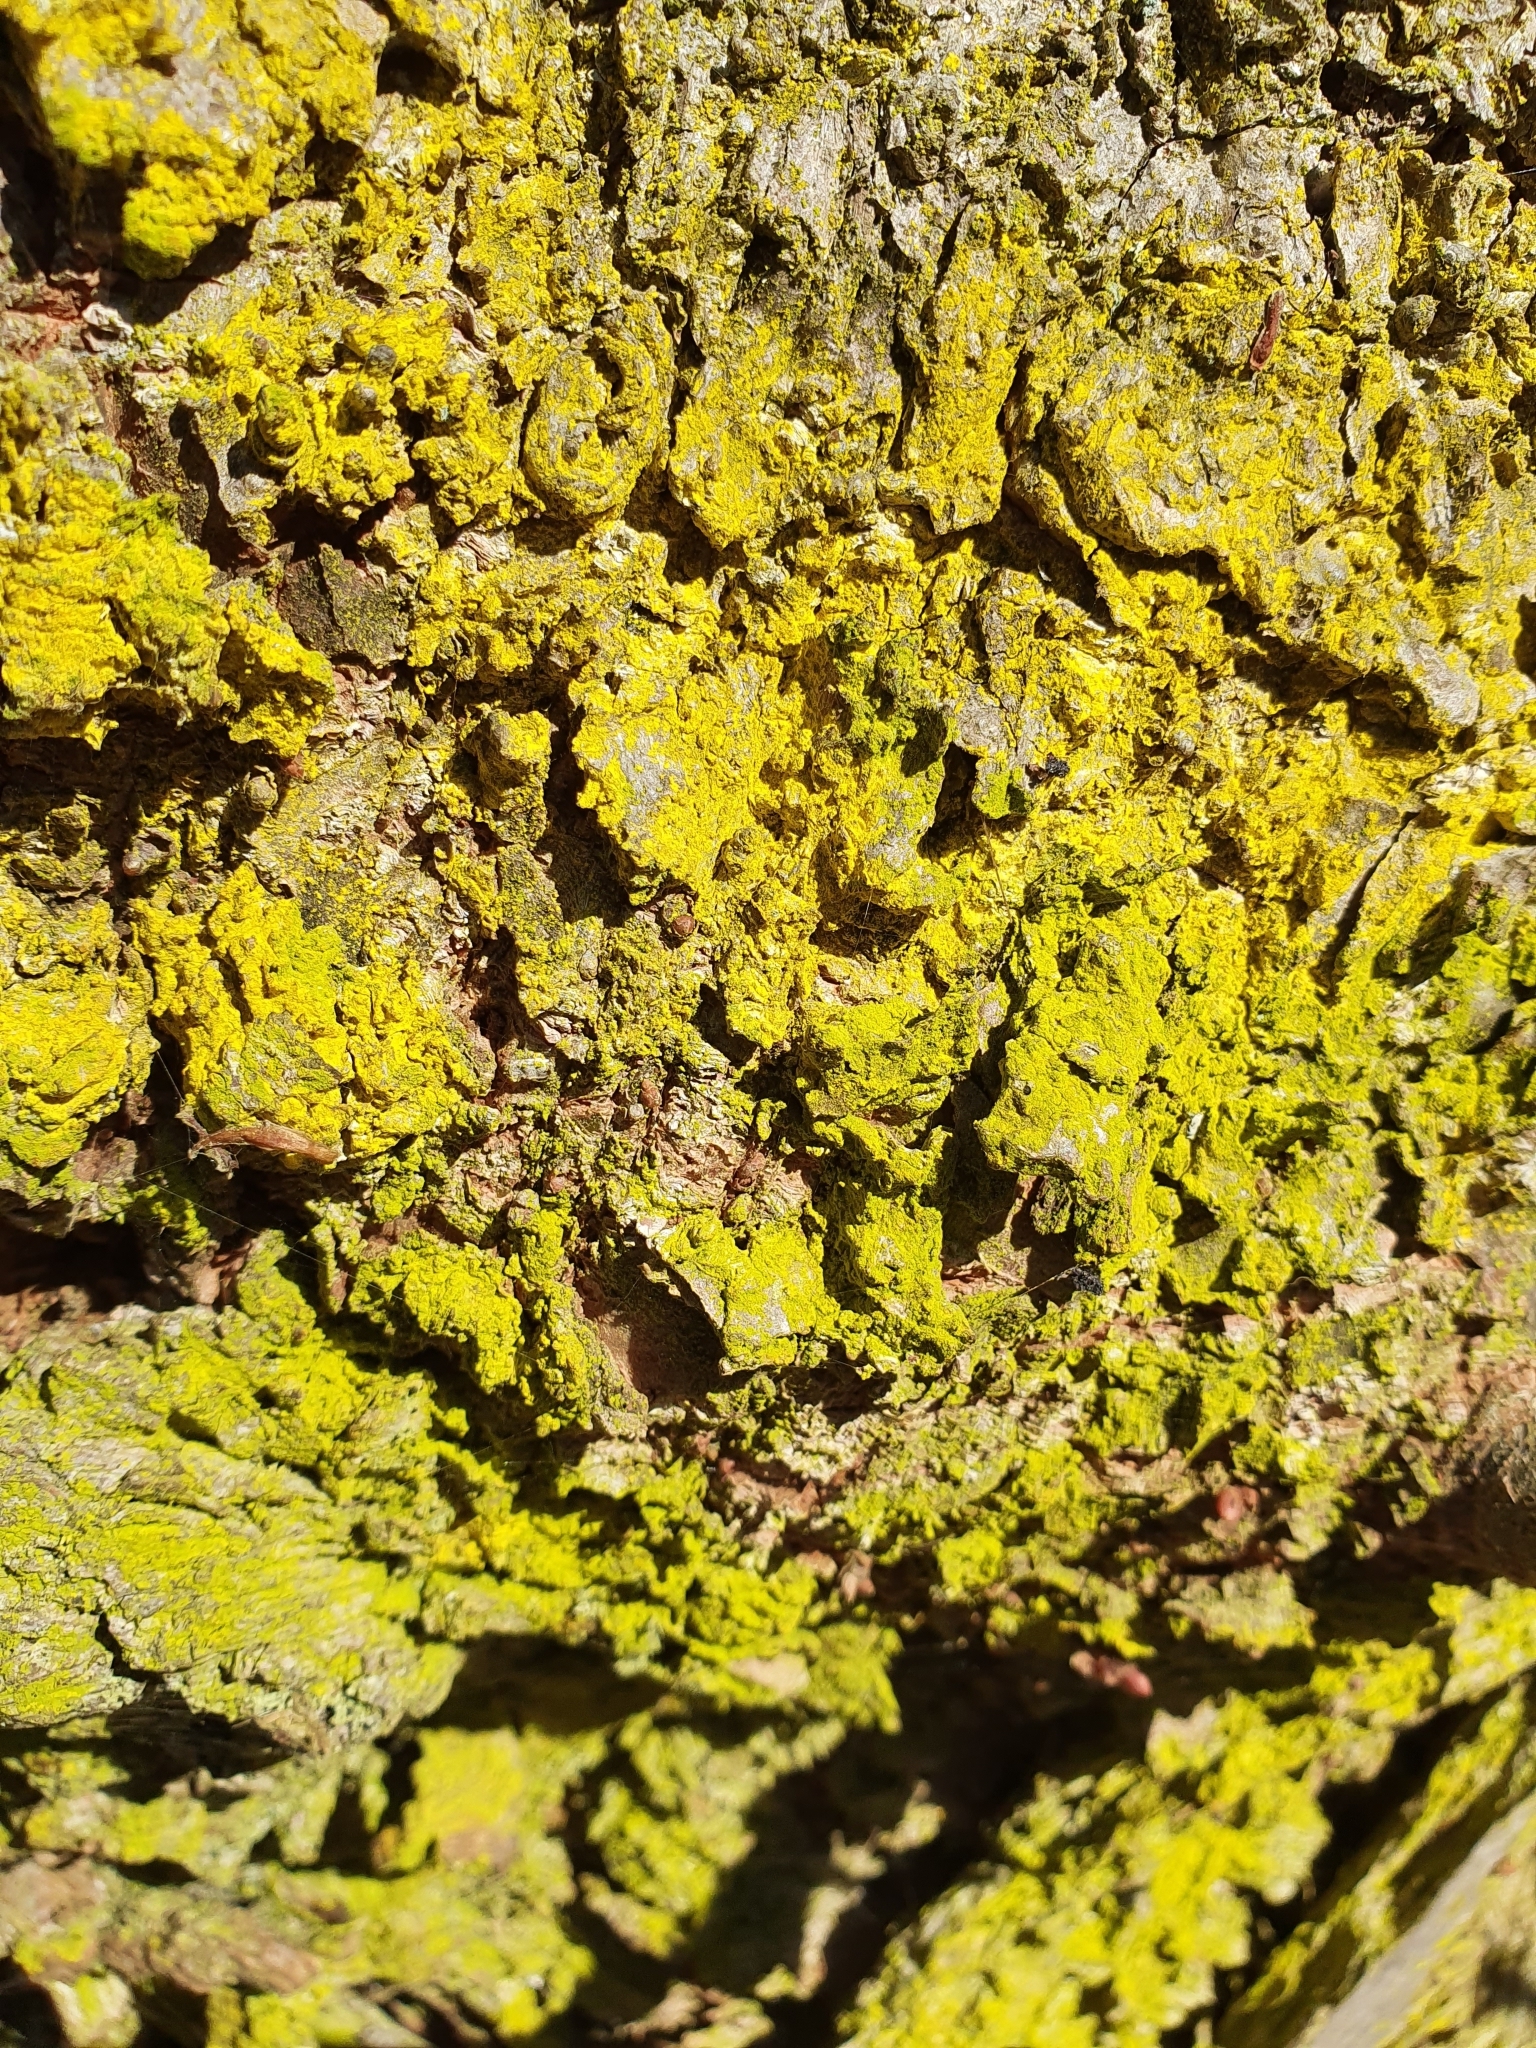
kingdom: Fungi
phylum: Ascomycota
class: Arthoniomycetes
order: Arthoniales
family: Chrysotrichaceae
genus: Chrysothrix
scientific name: Chrysothrix candelaris
